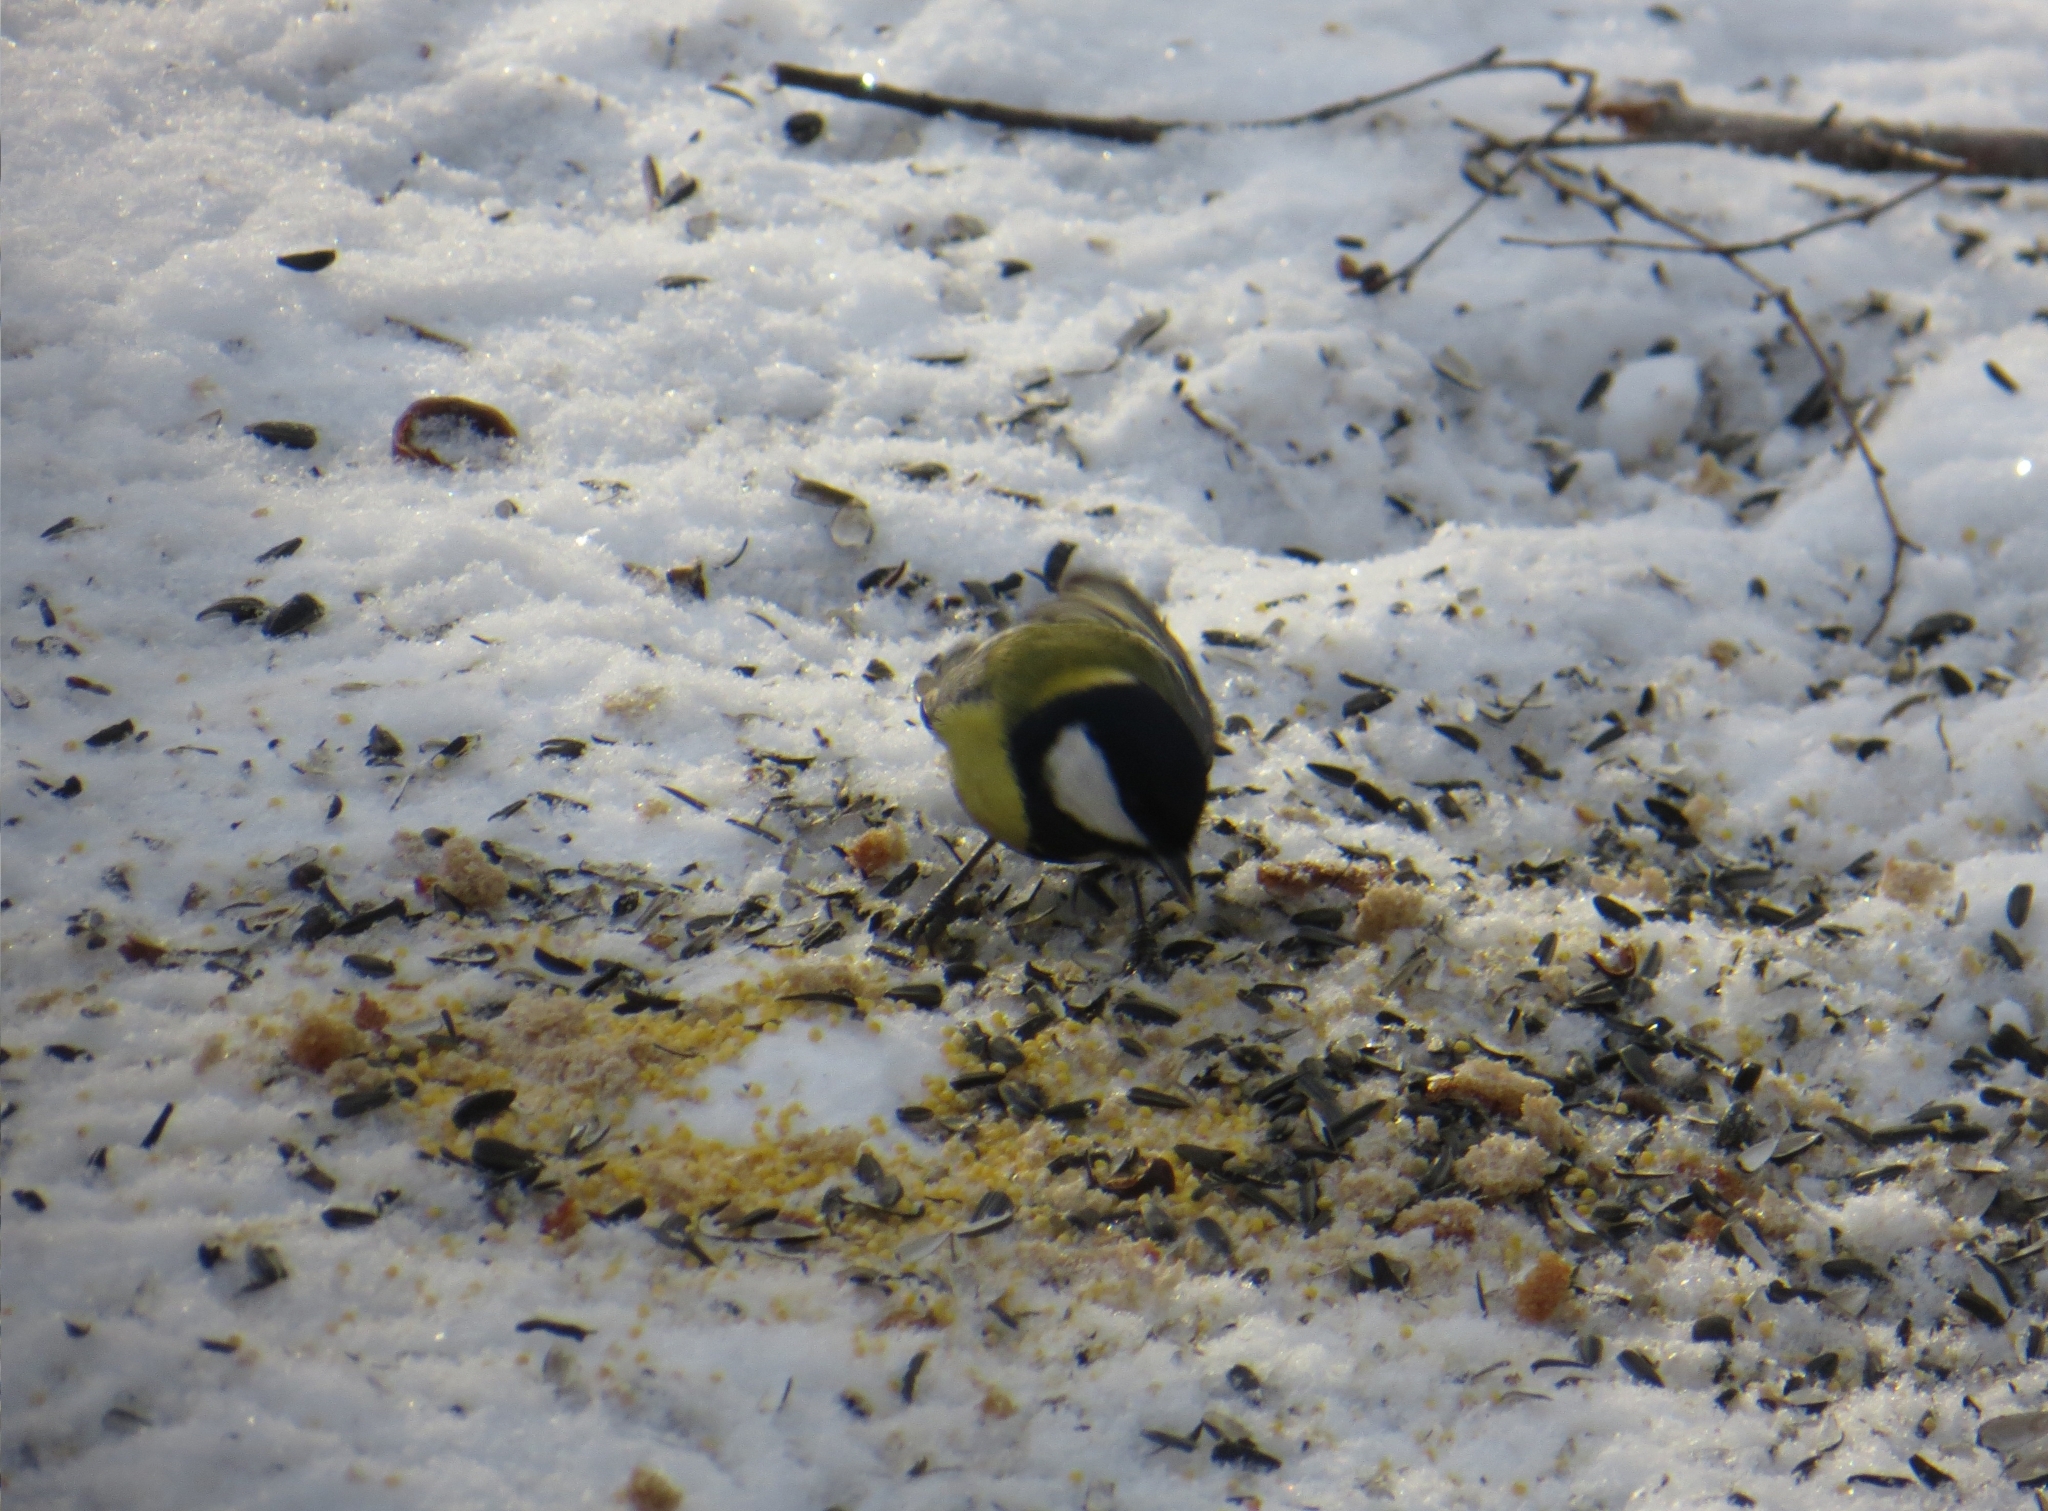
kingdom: Animalia
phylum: Chordata
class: Aves
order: Passeriformes
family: Paridae
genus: Parus
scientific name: Parus major
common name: Great tit
